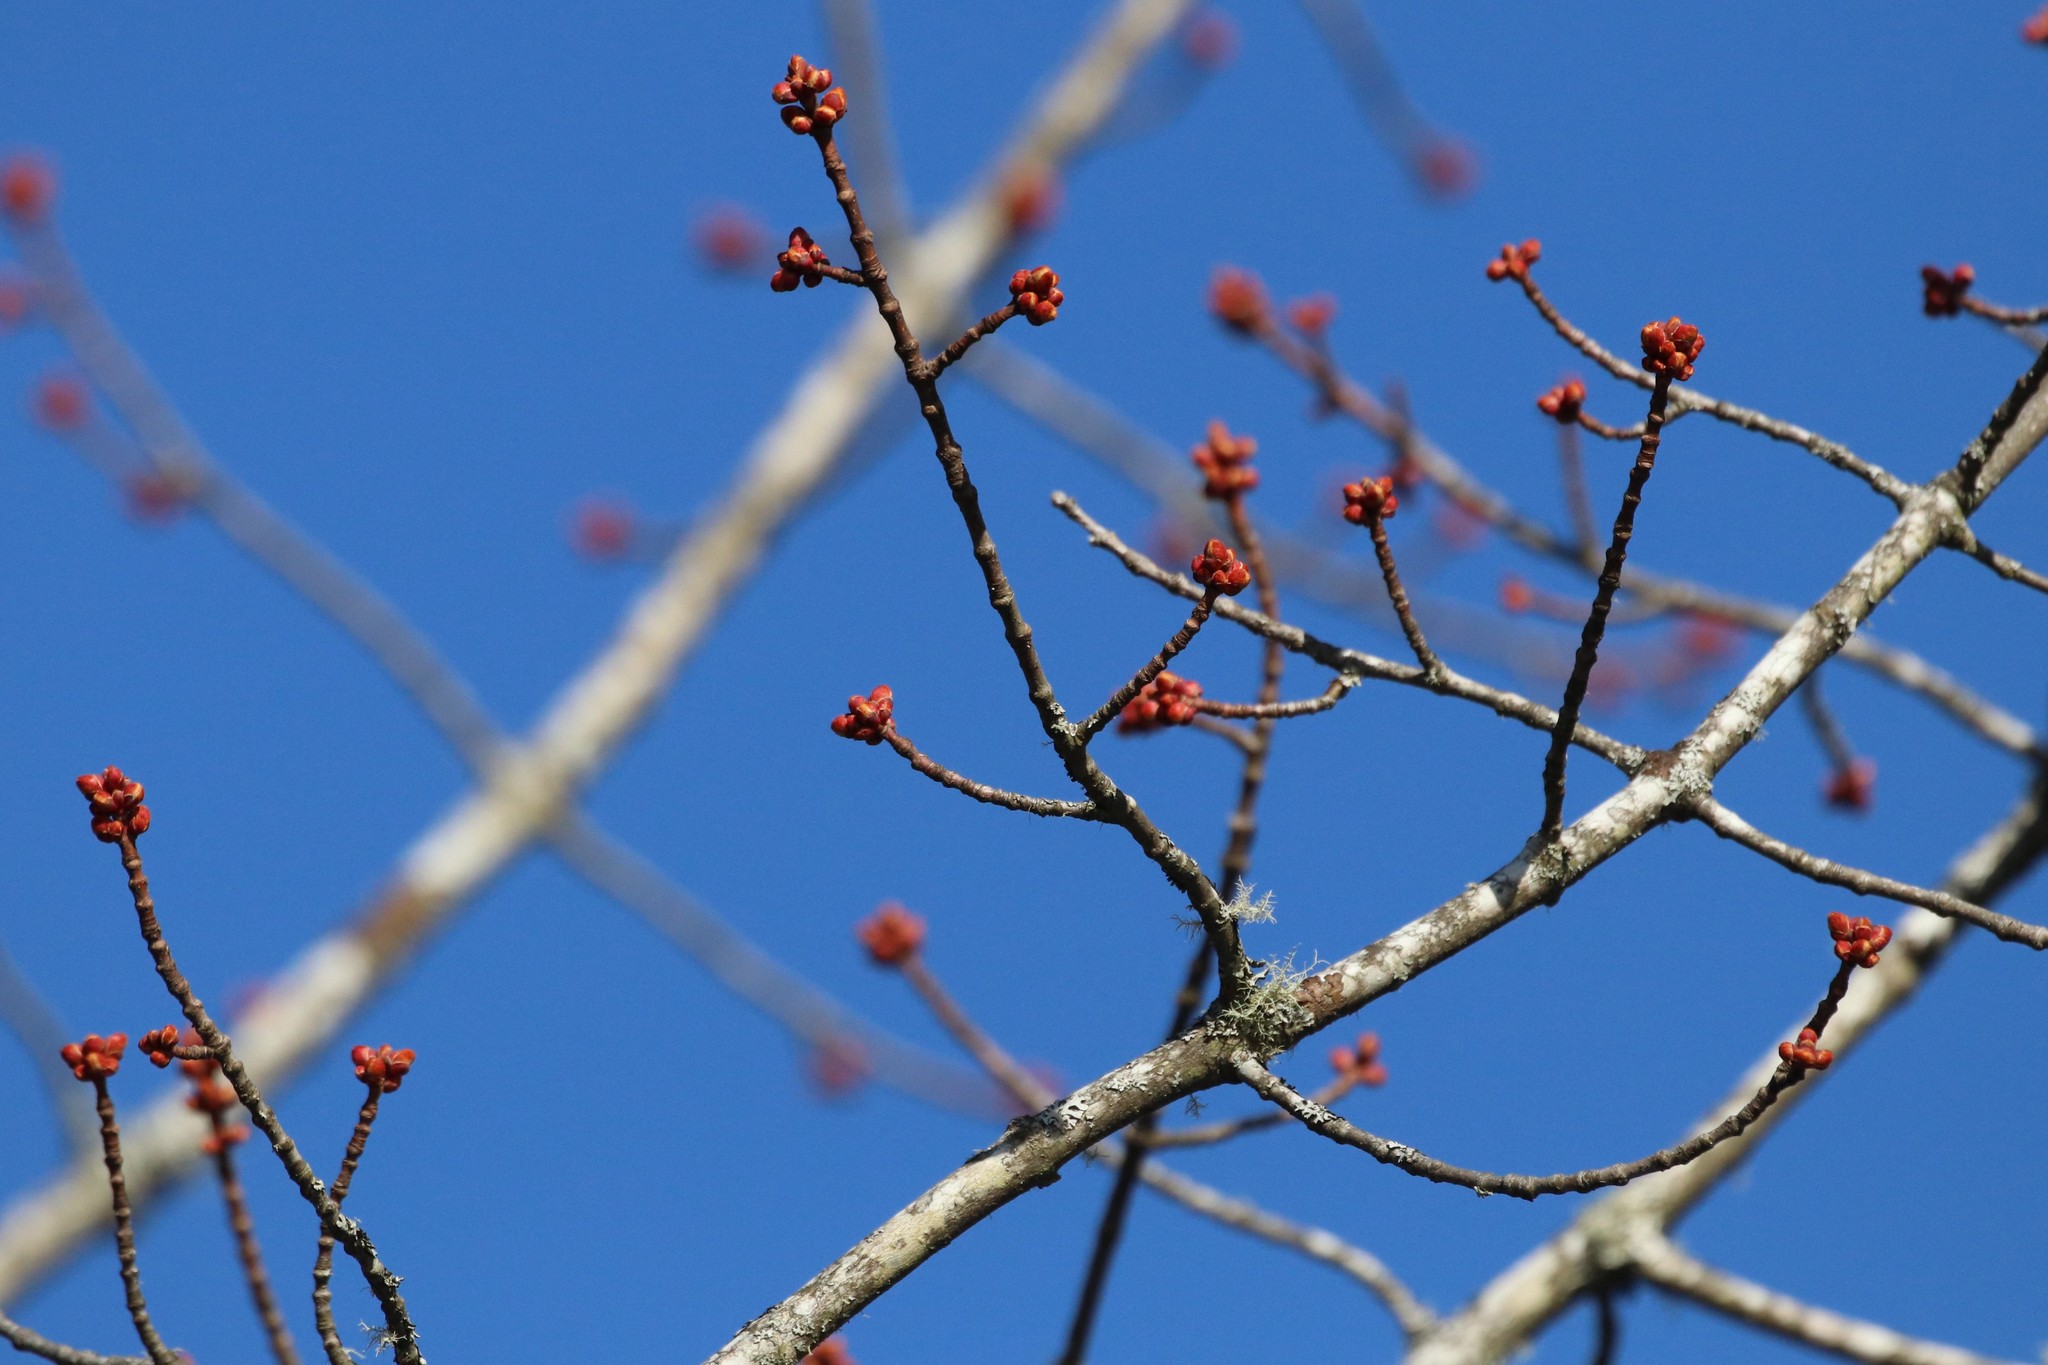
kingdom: Plantae
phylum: Tracheophyta
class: Magnoliopsida
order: Sapindales
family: Sapindaceae
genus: Acer
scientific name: Acer rubrum
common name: Red maple
